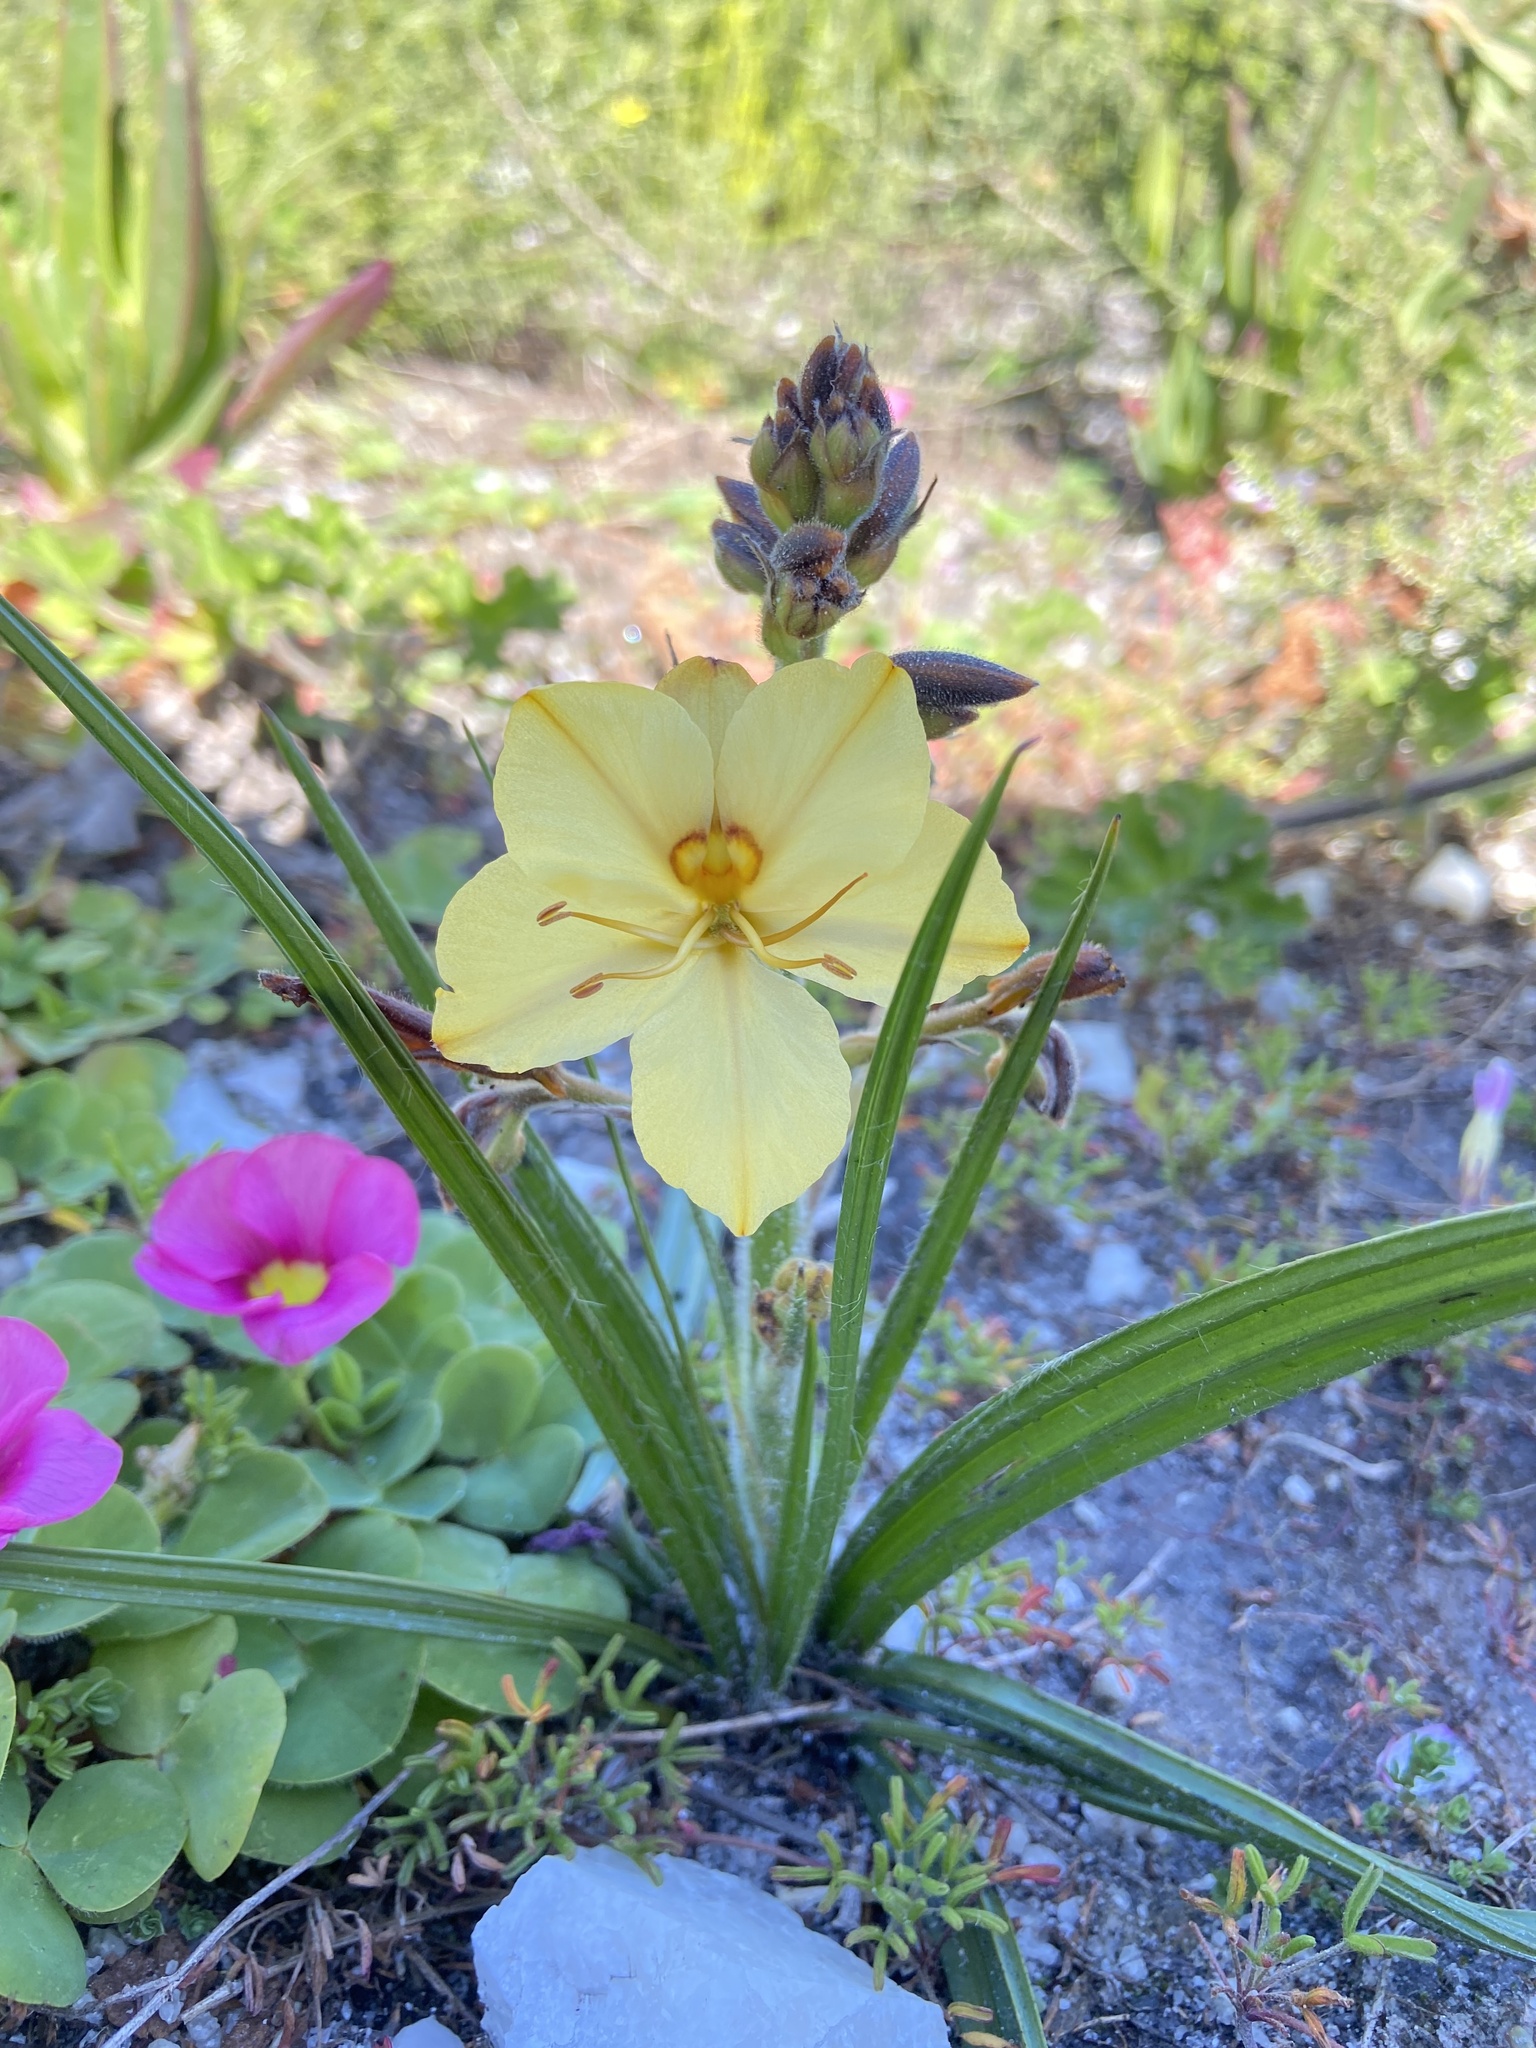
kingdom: Plantae
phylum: Tracheophyta
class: Liliopsida
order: Commelinales
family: Haemodoraceae
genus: Wachendorfia
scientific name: Wachendorfia paniculata
